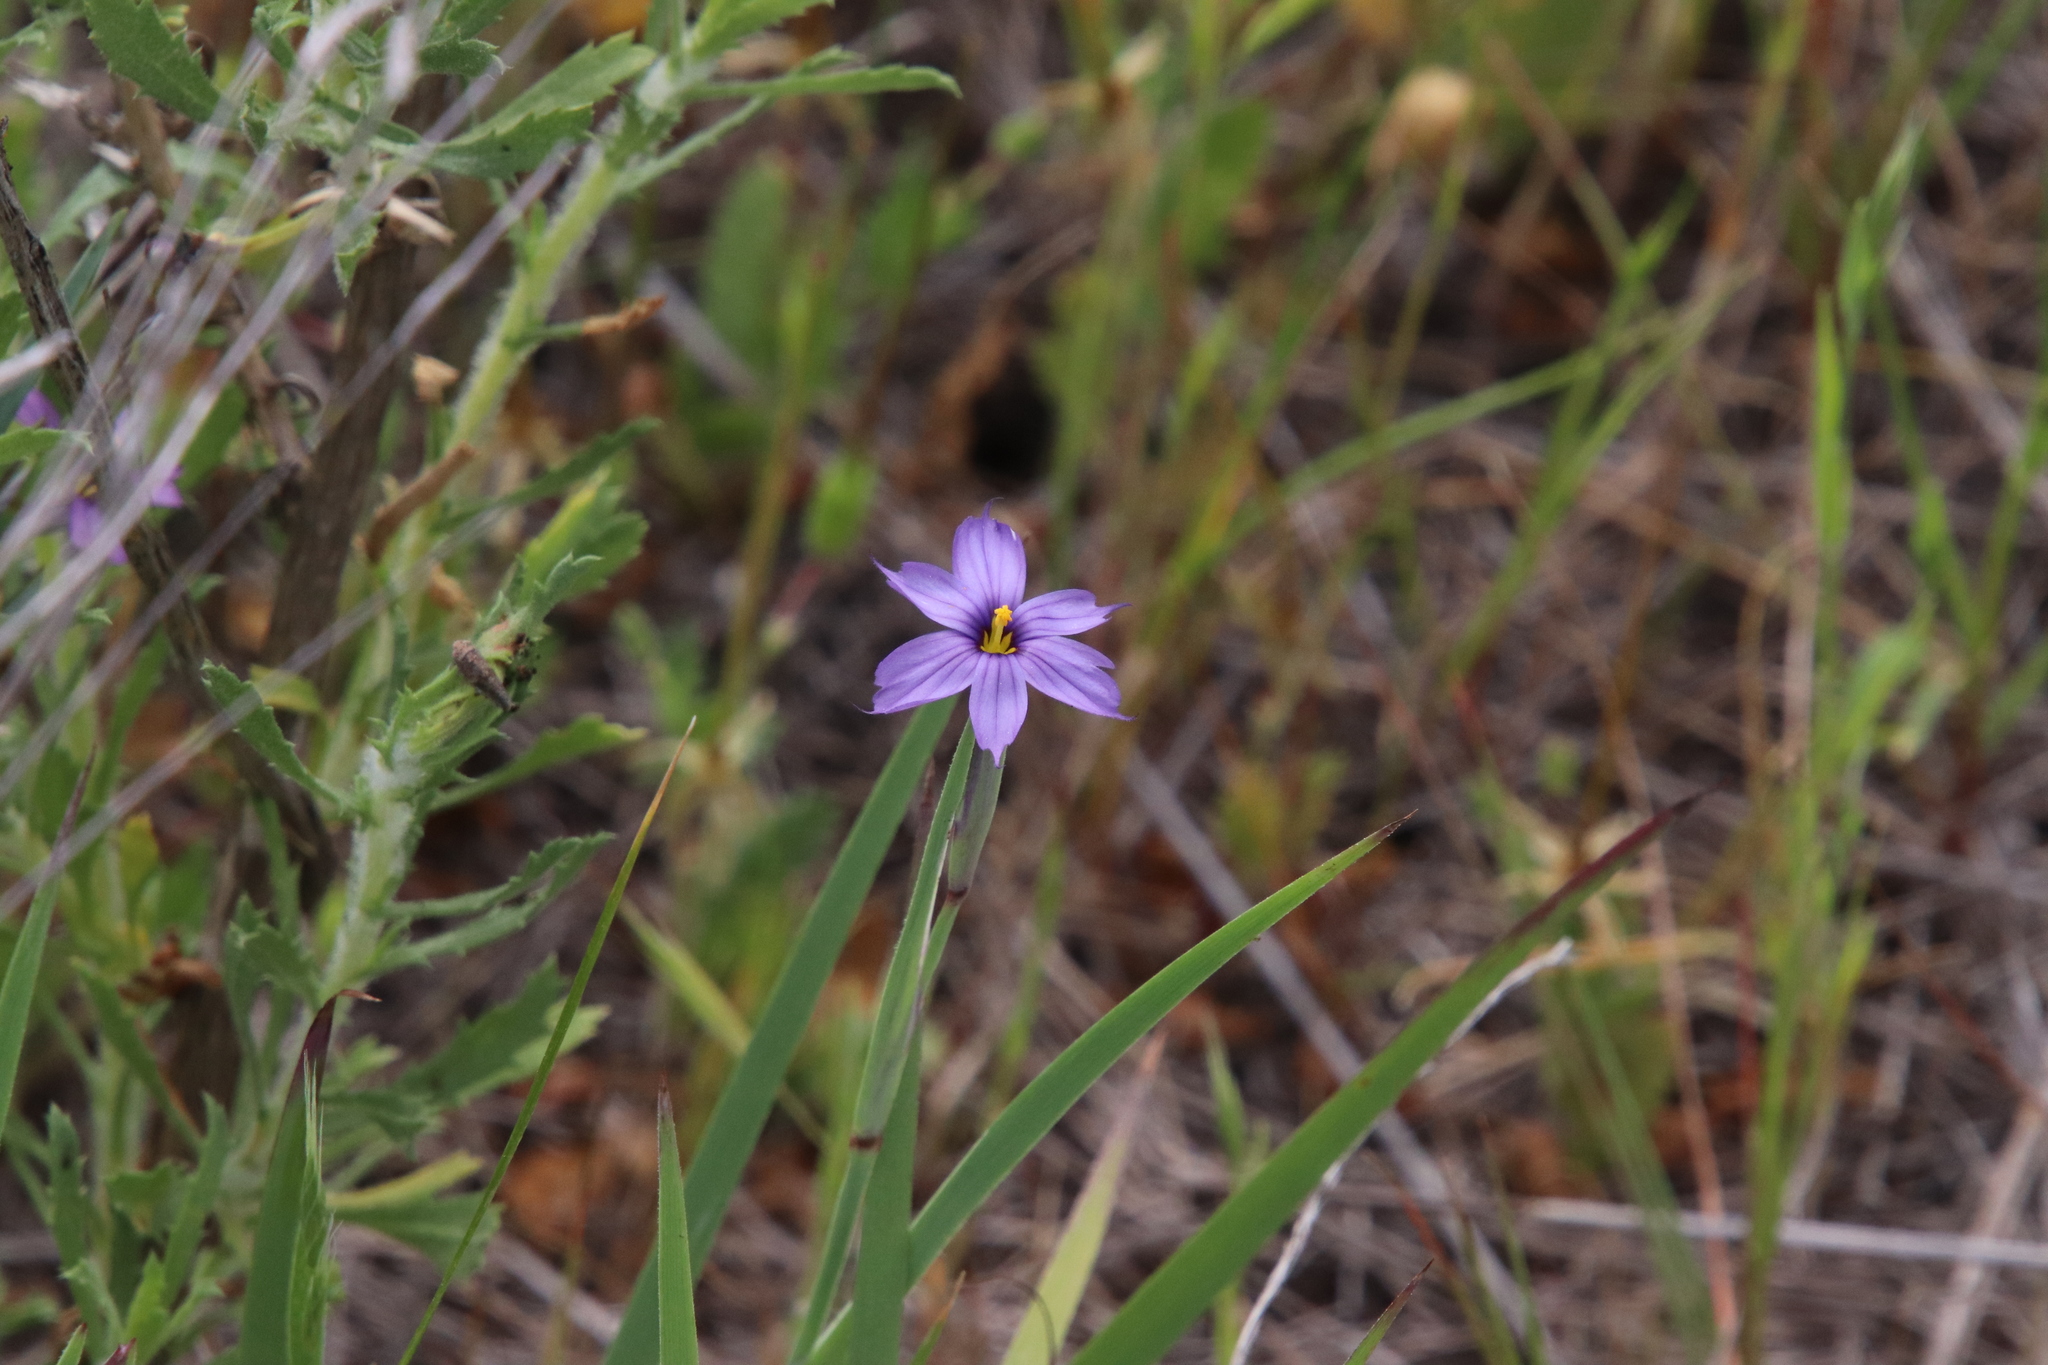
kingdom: Plantae
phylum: Tracheophyta
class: Liliopsida
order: Asparagales
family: Iridaceae
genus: Sisyrinchium
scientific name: Sisyrinchium bellum
